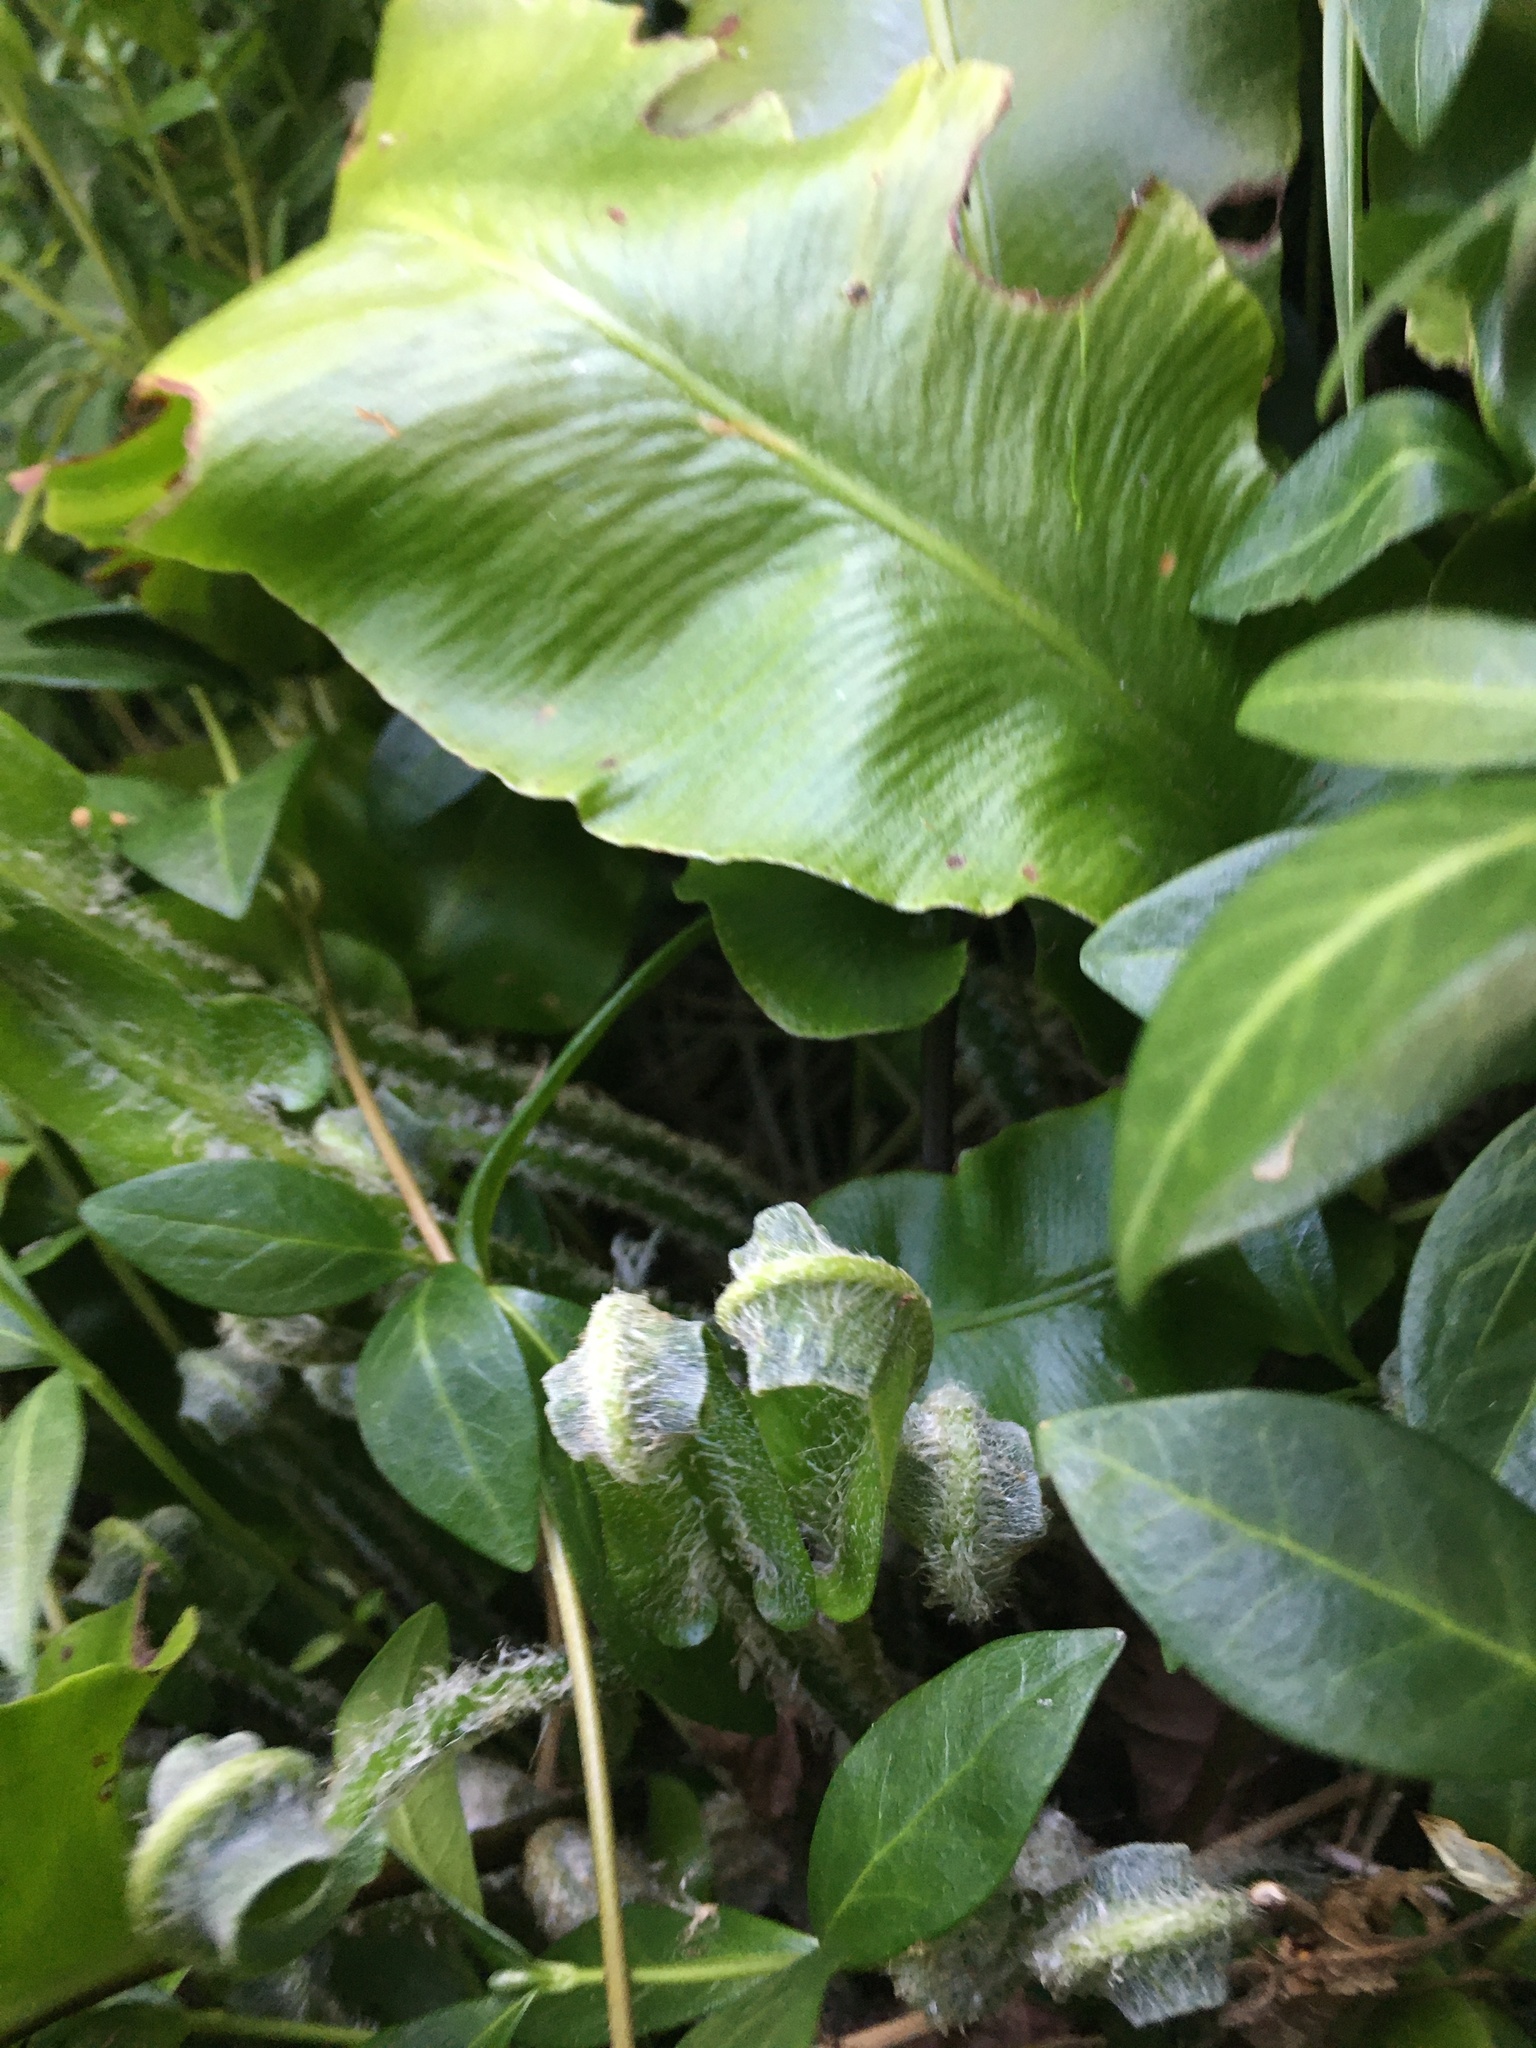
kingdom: Plantae
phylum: Tracheophyta
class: Polypodiopsida
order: Polypodiales
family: Aspleniaceae
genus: Asplenium
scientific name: Asplenium scolopendrium
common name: Hart's-tongue fern
